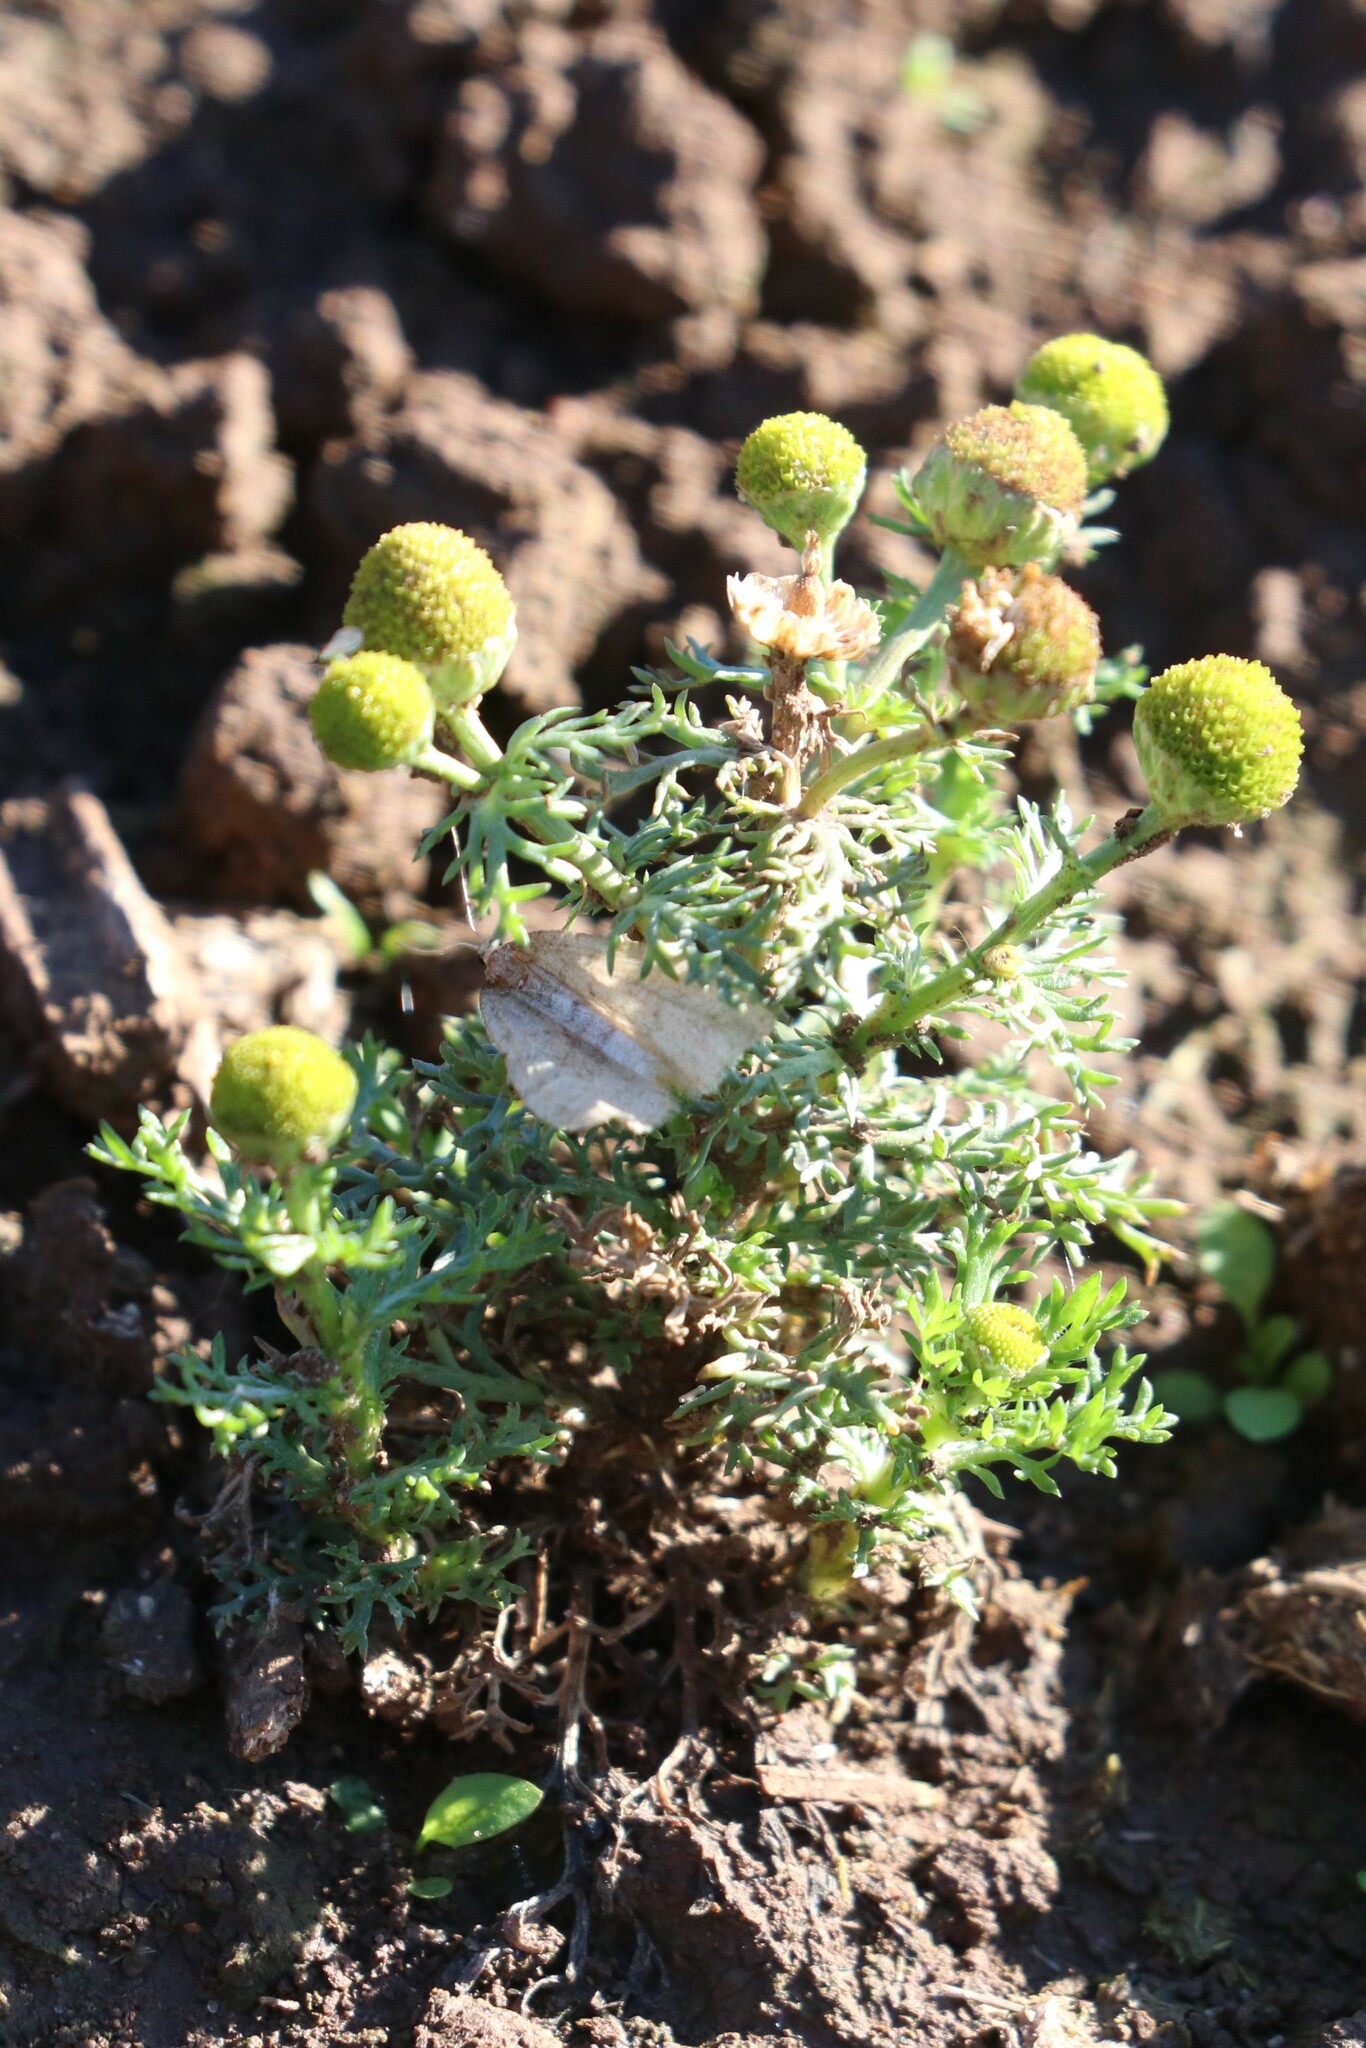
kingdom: Plantae
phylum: Tracheophyta
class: Magnoliopsida
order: Asterales
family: Asteraceae
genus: Matricaria
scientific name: Matricaria discoidea
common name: Disc mayweed
